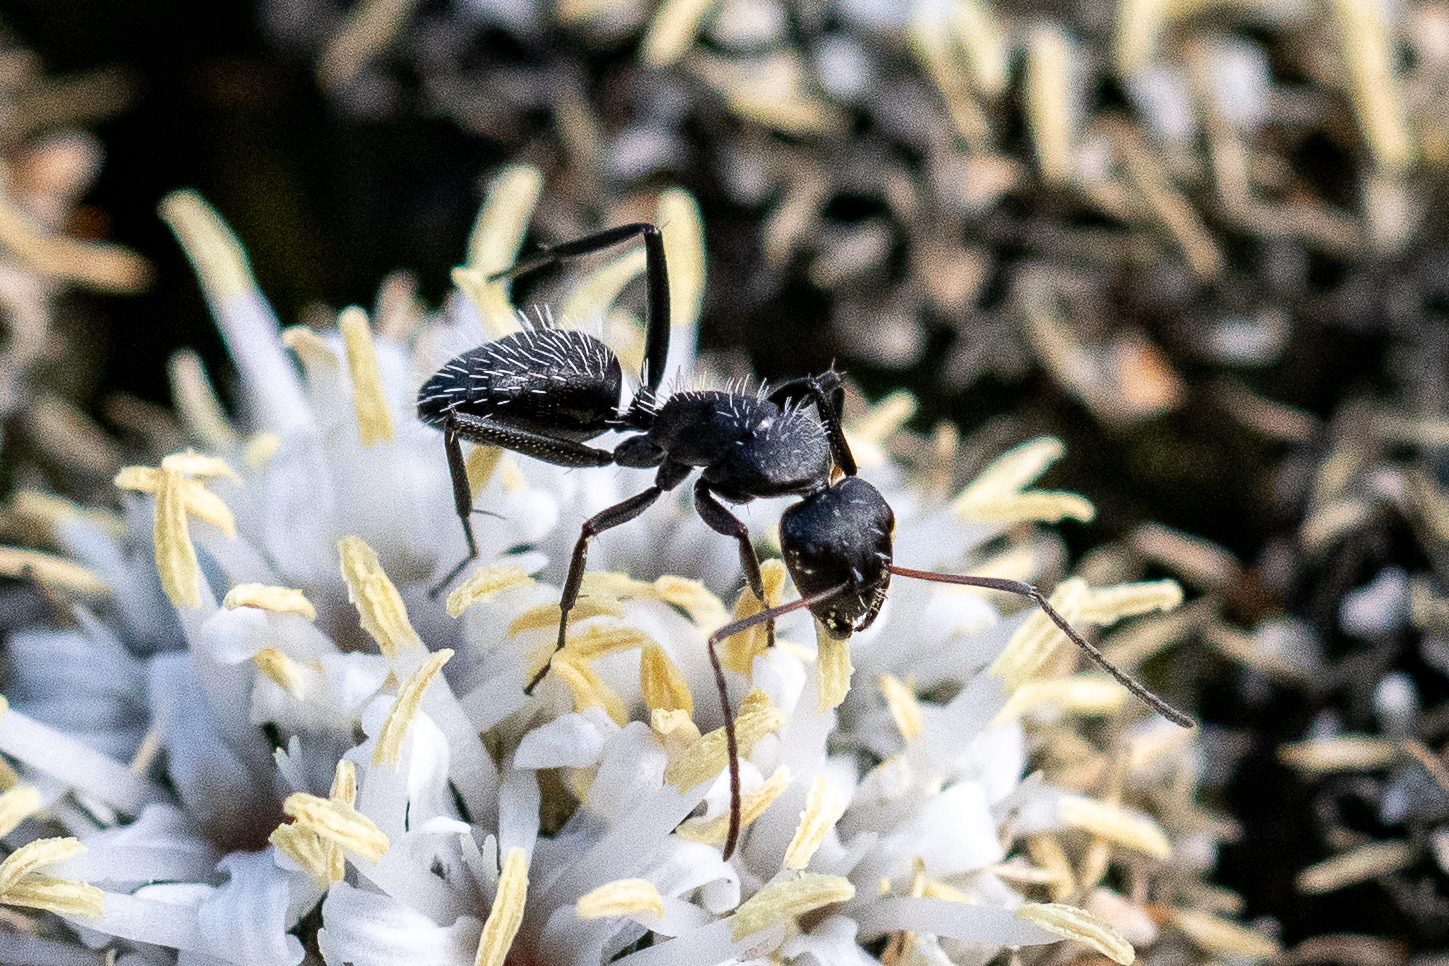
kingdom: Animalia
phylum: Arthropoda
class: Insecta
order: Hymenoptera
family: Formicidae
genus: Camponotus
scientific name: Camponotus niveosetosus
